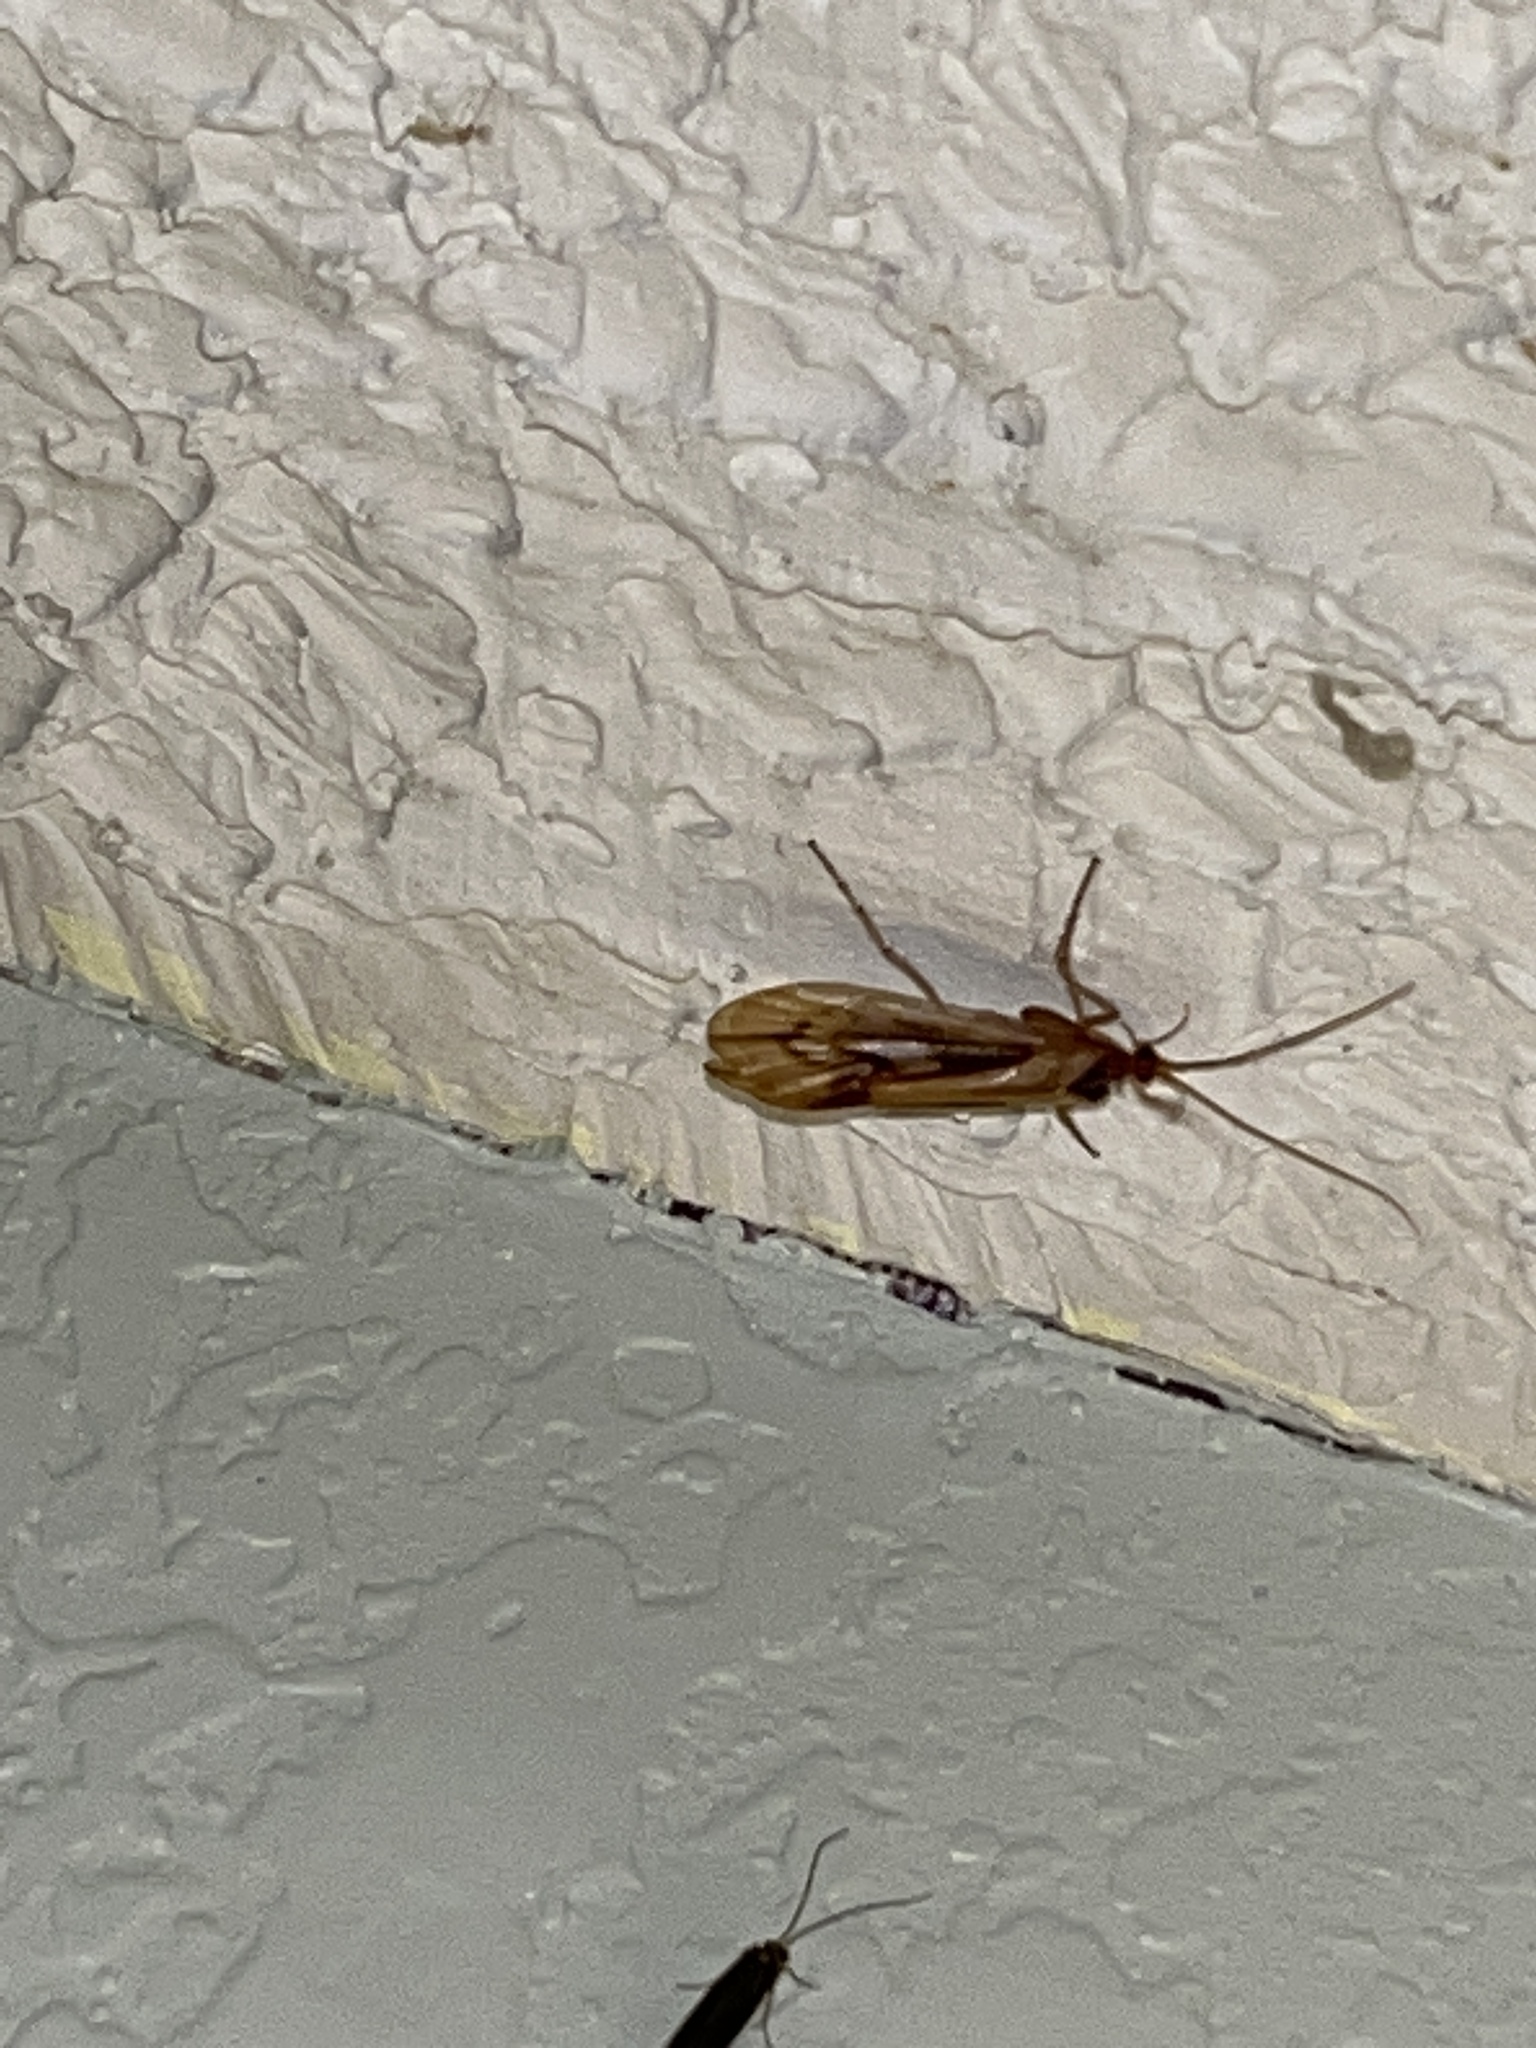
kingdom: Animalia
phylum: Arthropoda
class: Insecta
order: Trichoptera
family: Limnephilidae
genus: Platycentropus
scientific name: Platycentropus radiatus
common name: Chocolate-and-cream sedge
